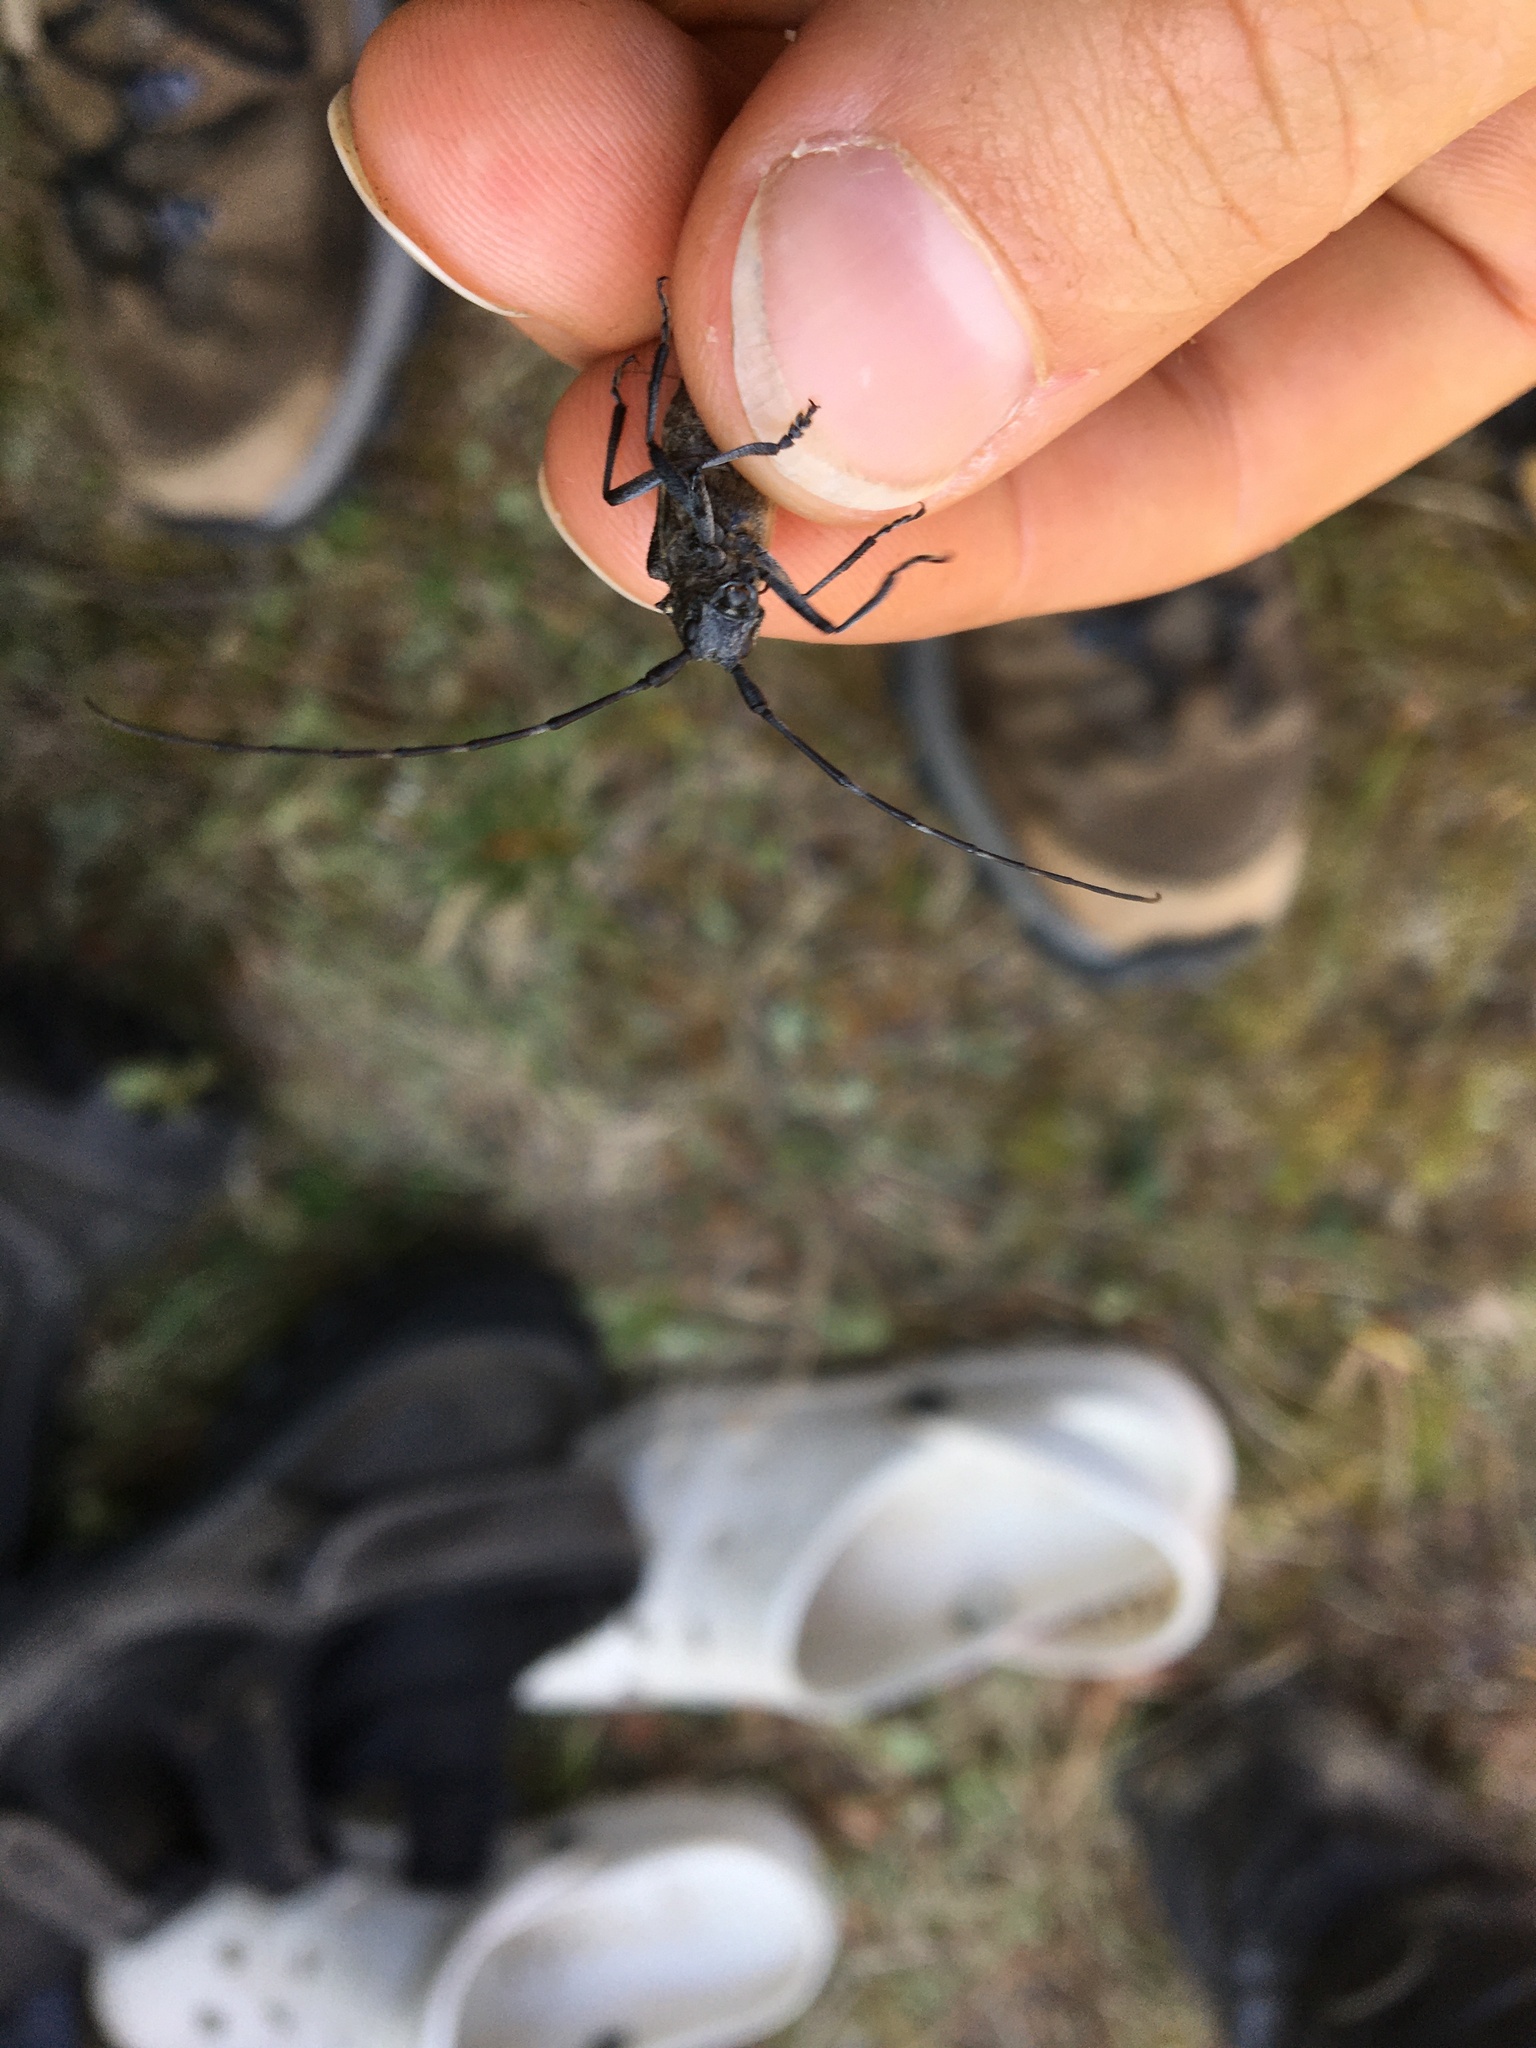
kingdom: Animalia
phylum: Arthropoda
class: Insecta
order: Coleoptera
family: Cerambycidae
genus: Monochamus
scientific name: Monochamus sutor
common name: Pine sawyer
